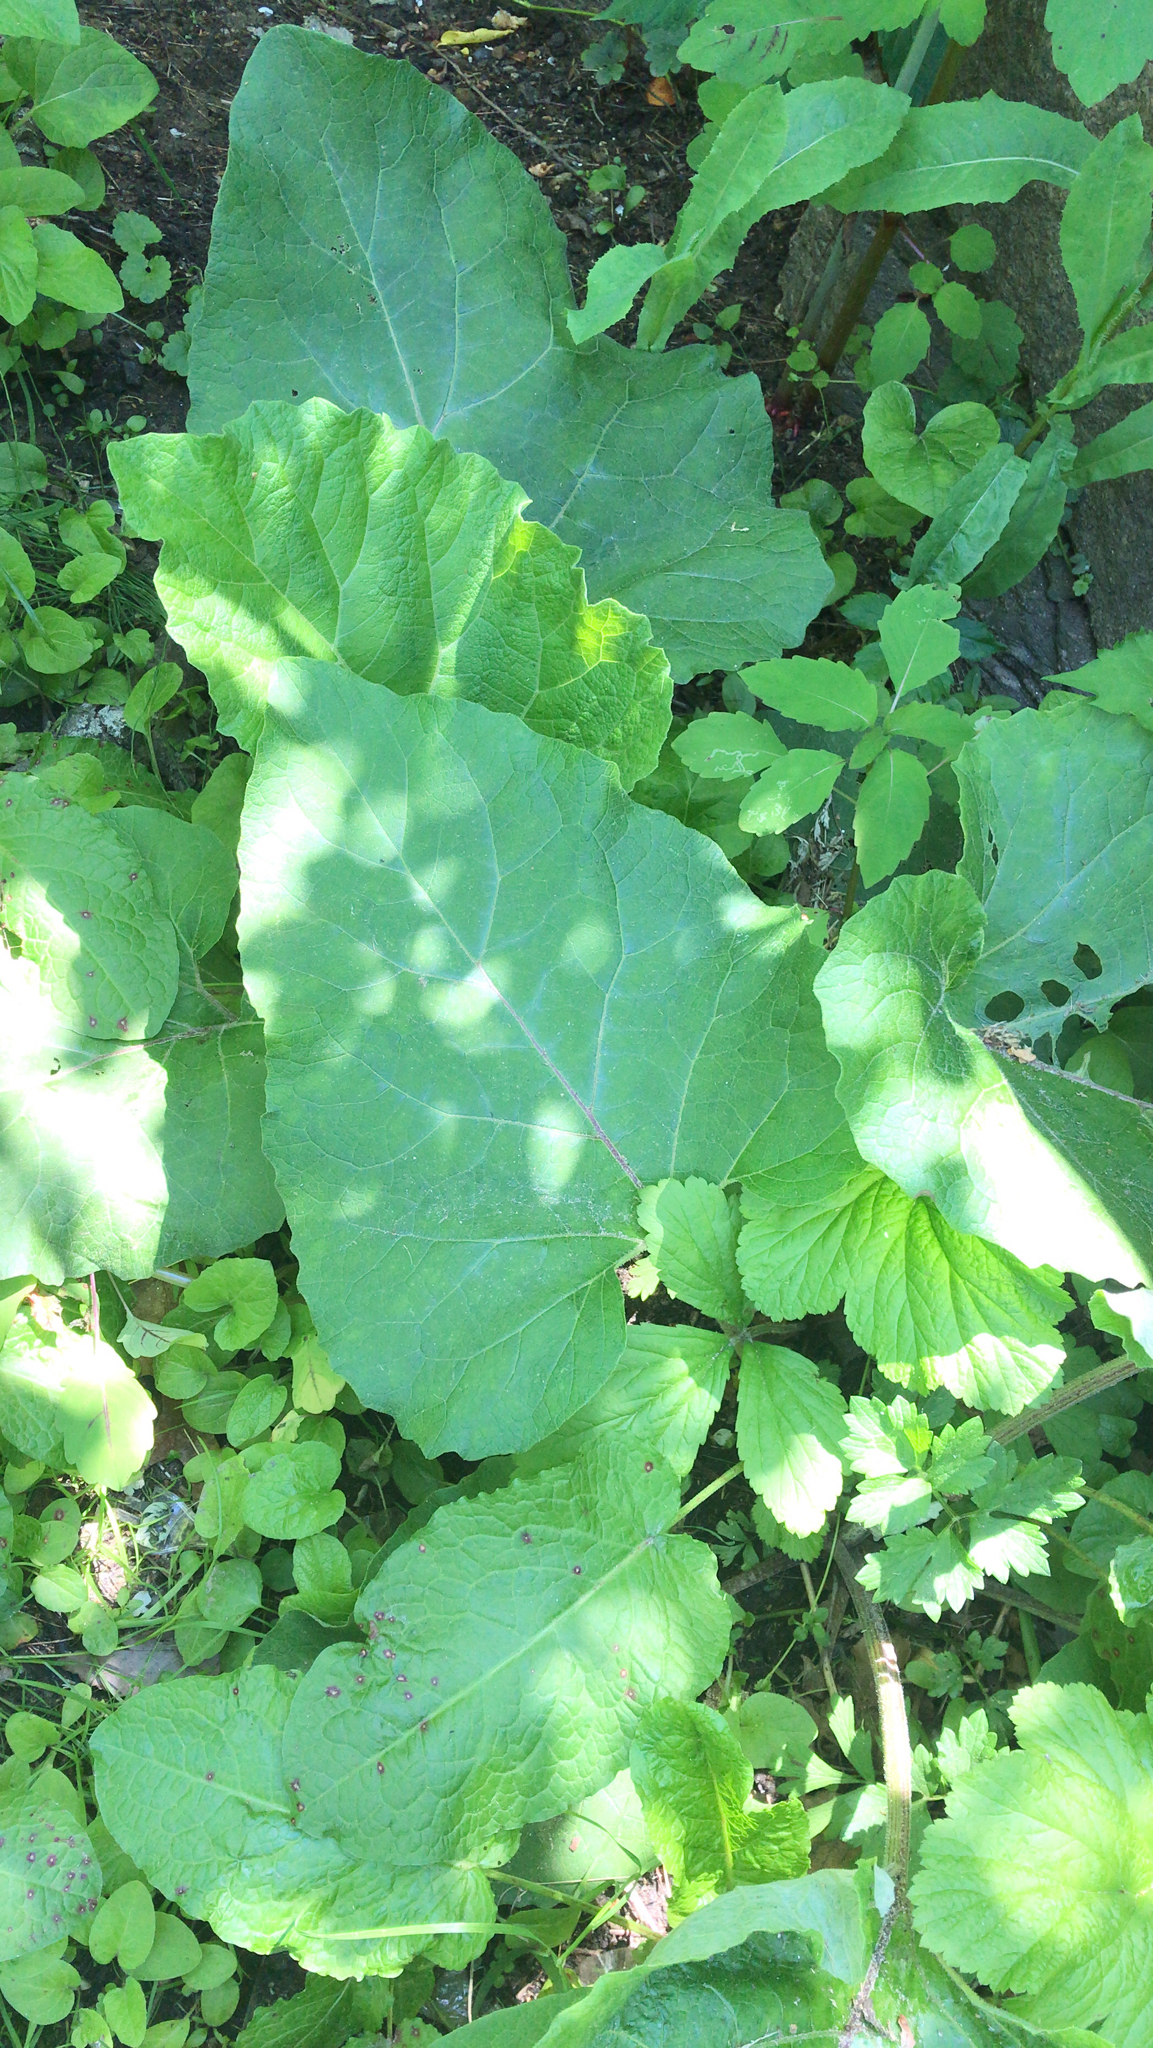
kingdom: Plantae
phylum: Tracheophyta
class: Magnoliopsida
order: Asterales
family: Asteraceae
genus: Arctium
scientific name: Arctium
